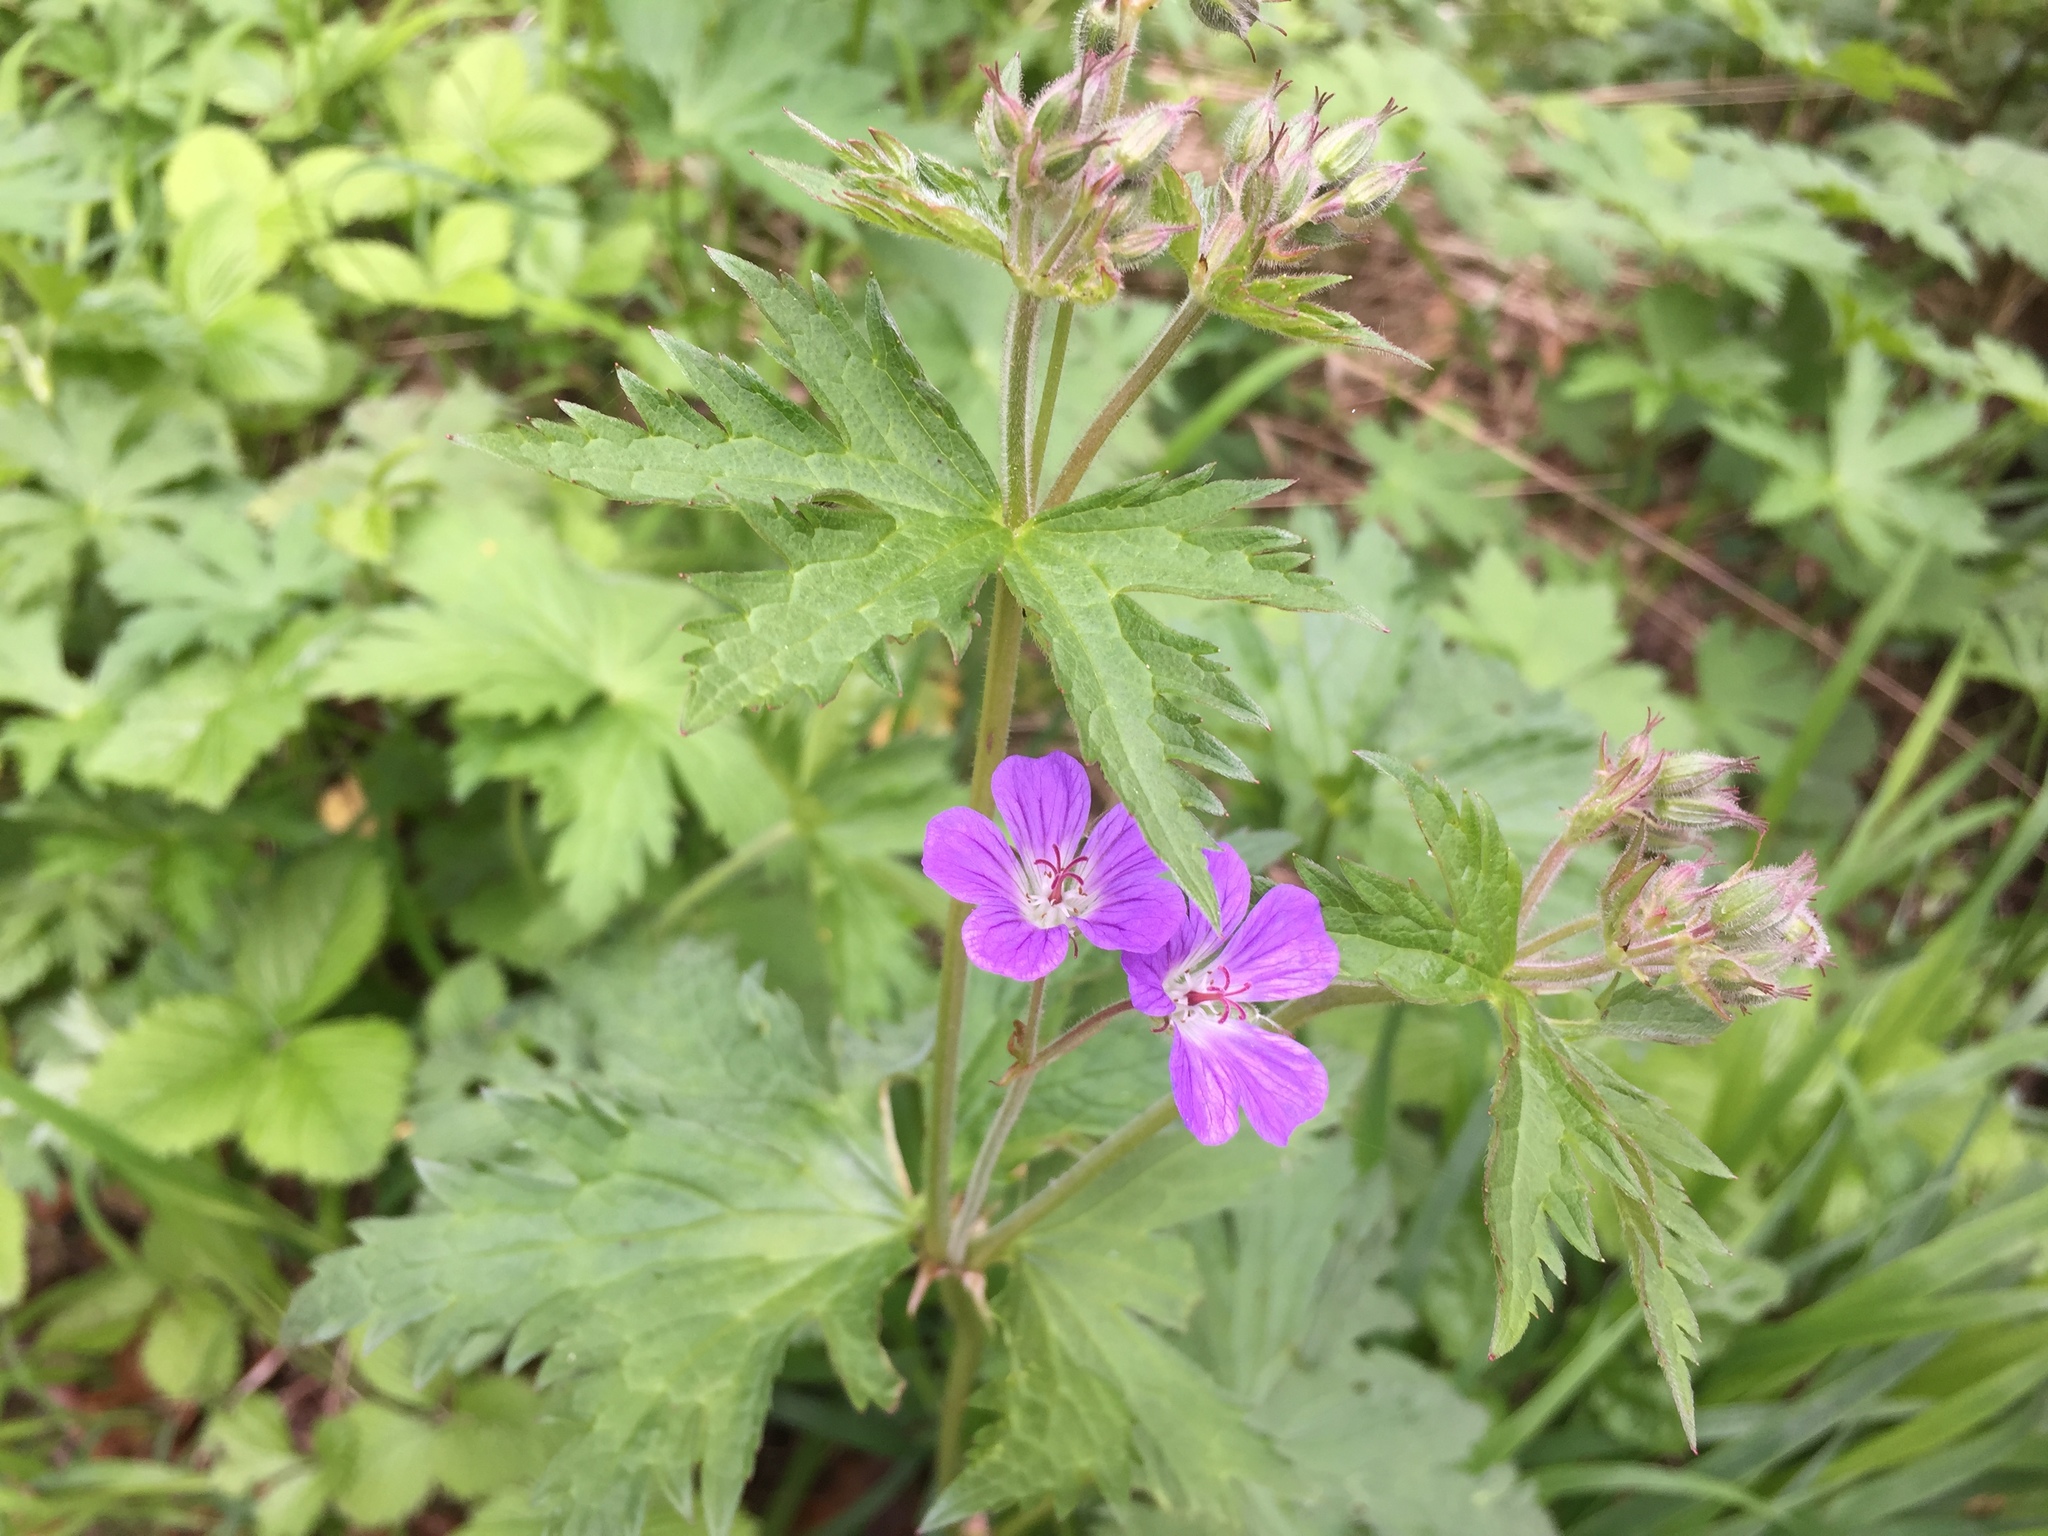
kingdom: Plantae
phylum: Tracheophyta
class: Magnoliopsida
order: Geraniales
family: Geraniaceae
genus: Geranium
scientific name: Geranium sylvaticum
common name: Wood crane's-bill
